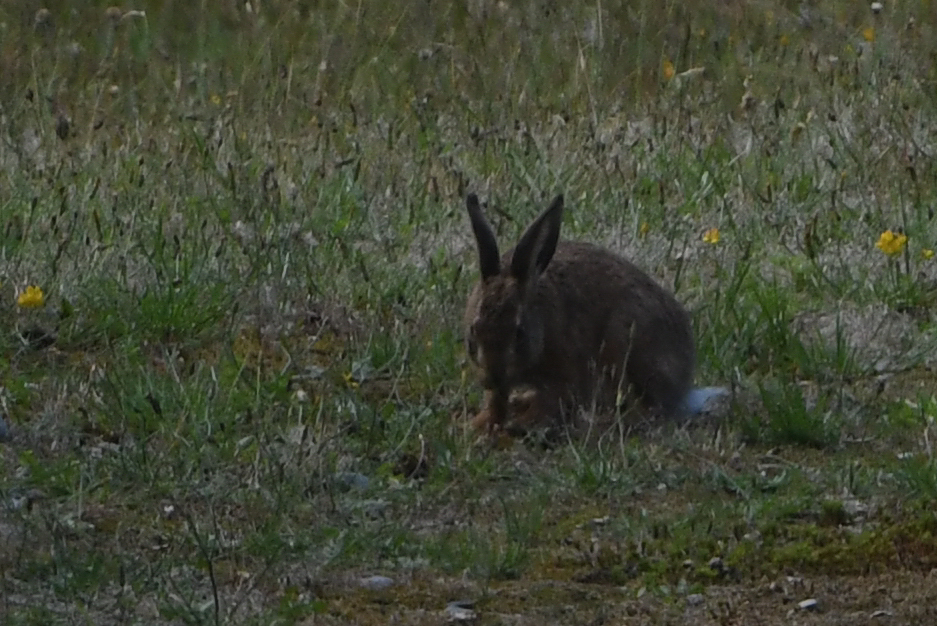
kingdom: Animalia
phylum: Chordata
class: Mammalia
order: Lagomorpha
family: Leporidae
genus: Oryctolagus
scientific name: Oryctolagus cuniculus
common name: European rabbit
